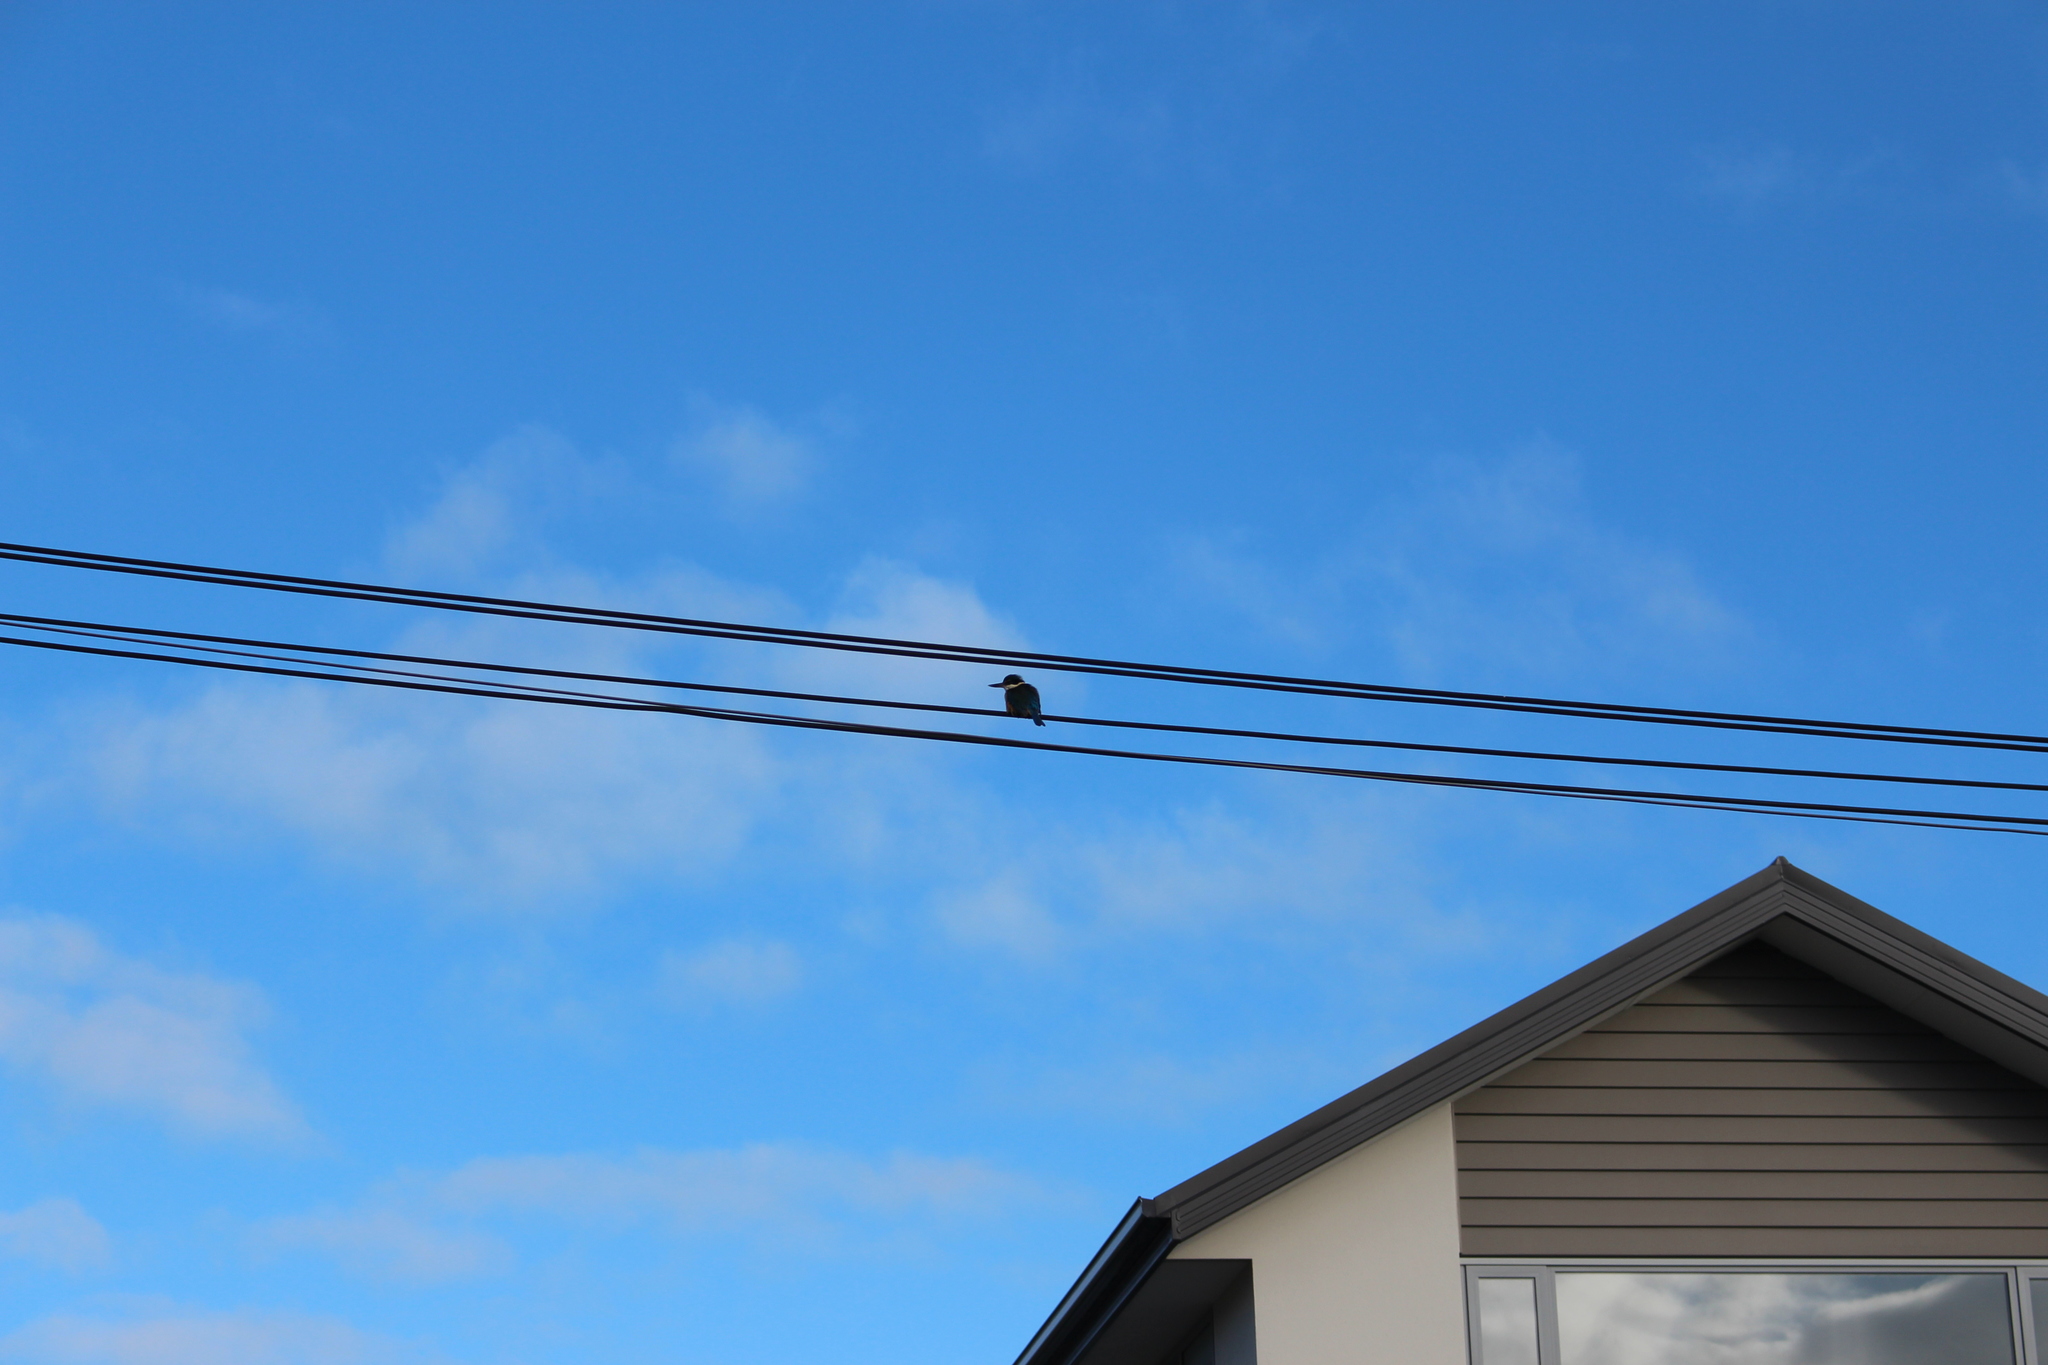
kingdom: Animalia
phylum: Chordata
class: Aves
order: Coraciiformes
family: Alcedinidae
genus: Todiramphus
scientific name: Todiramphus sanctus
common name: Sacred kingfisher
